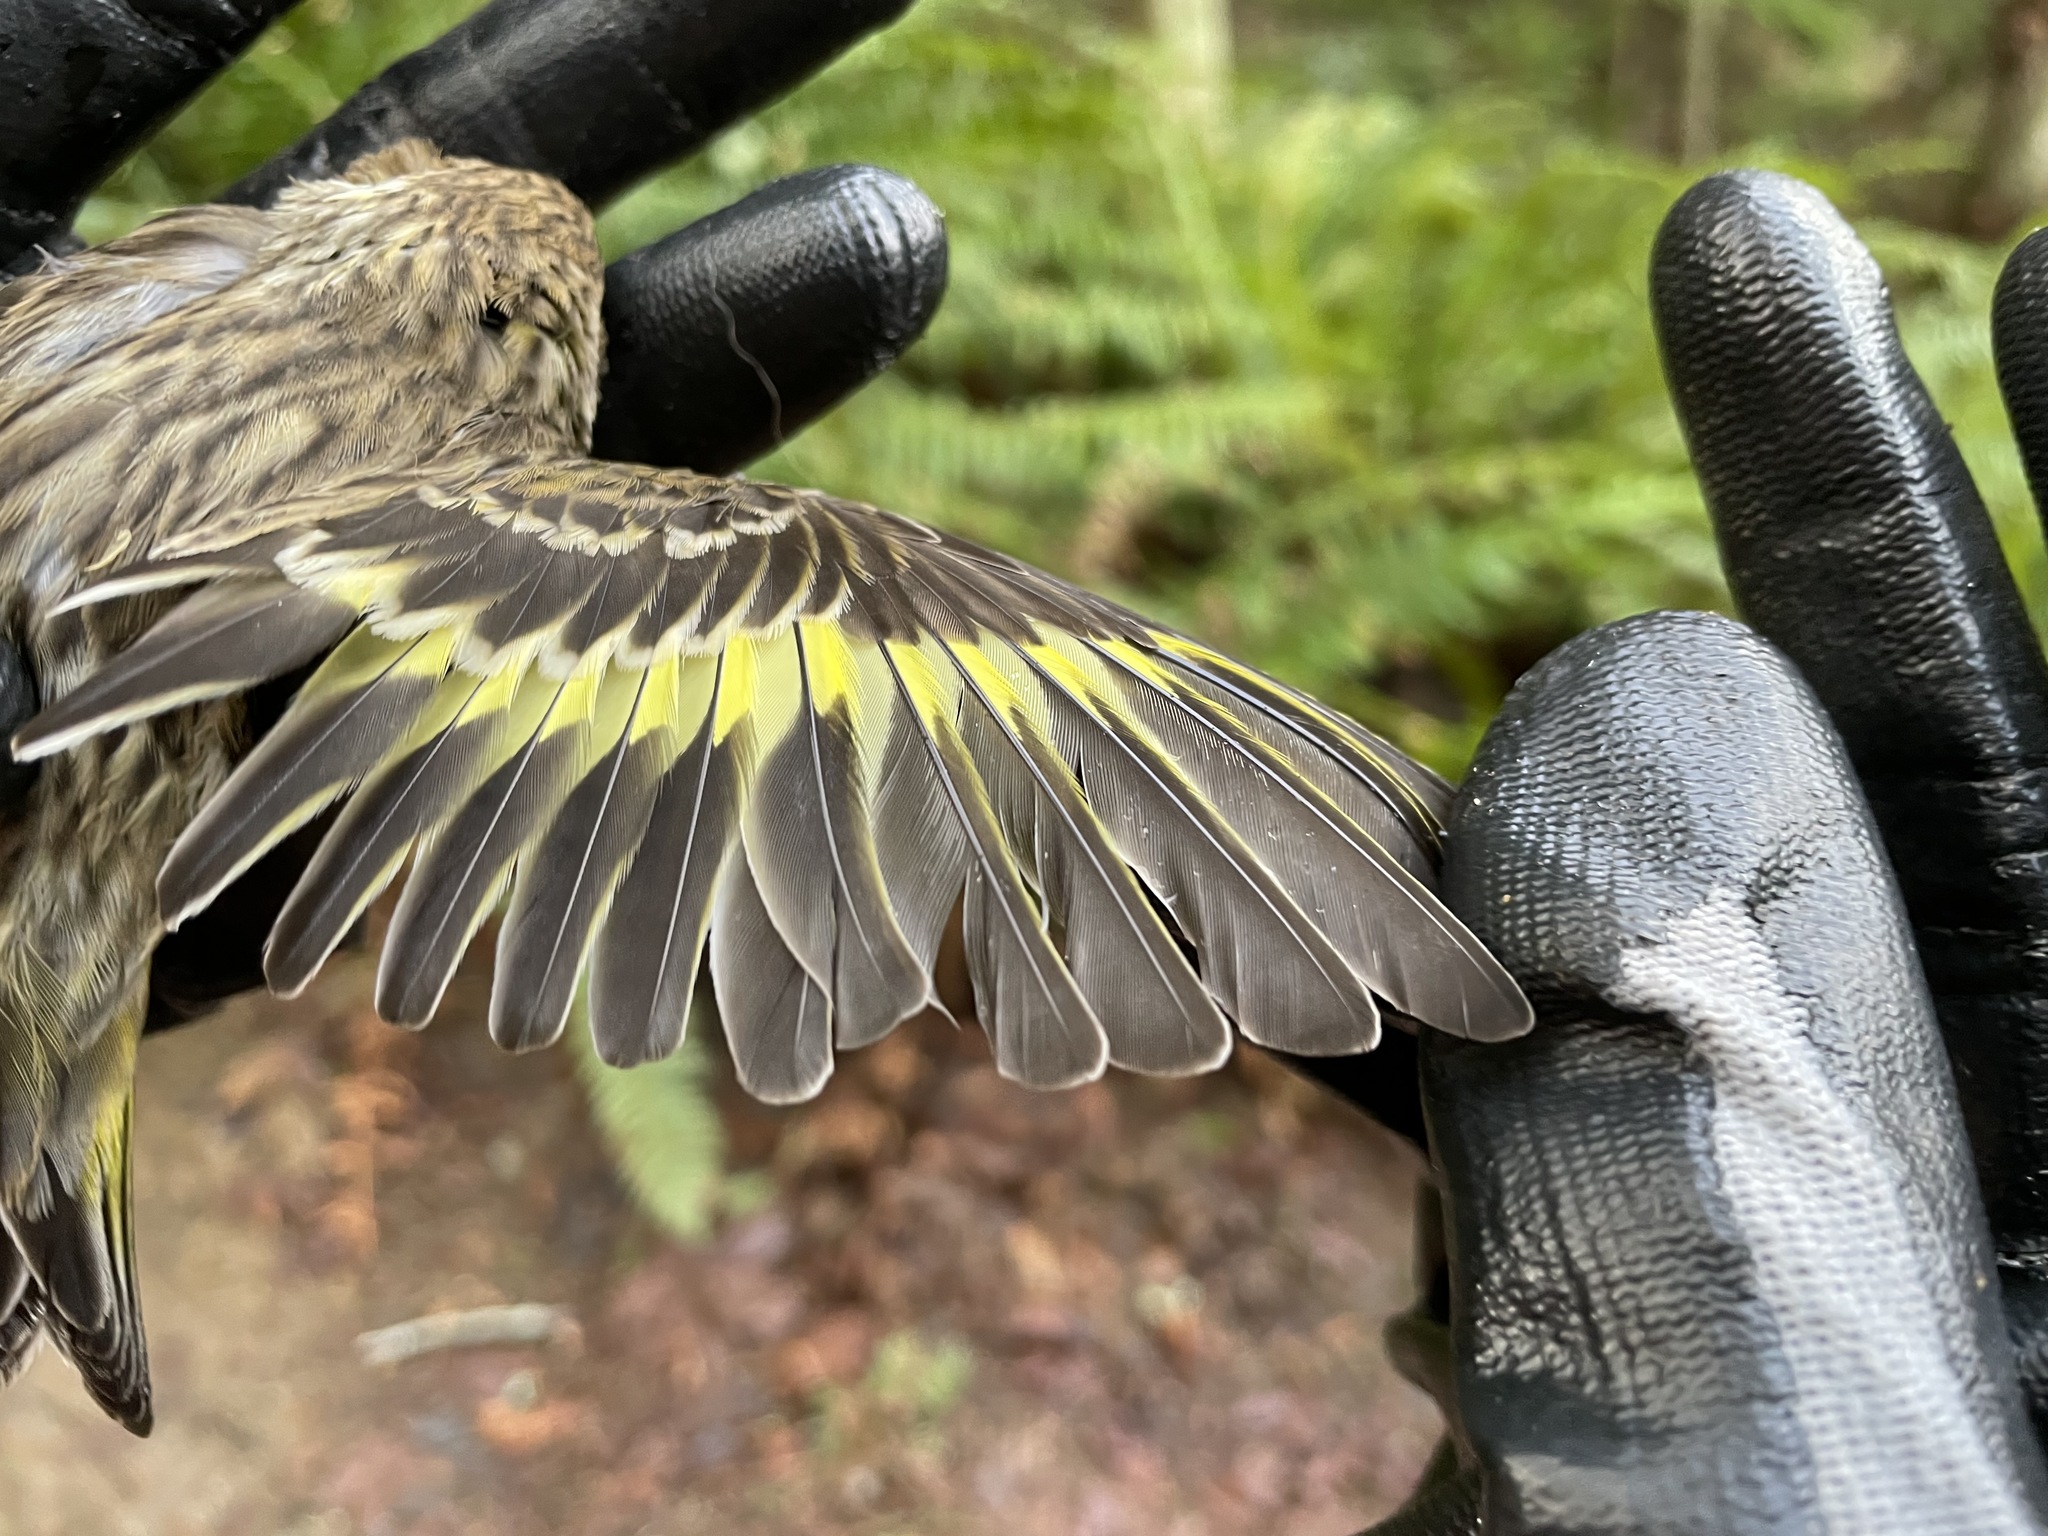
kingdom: Animalia
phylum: Chordata
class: Aves
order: Passeriformes
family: Fringillidae
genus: Spinus
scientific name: Spinus pinus
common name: Pine siskin
